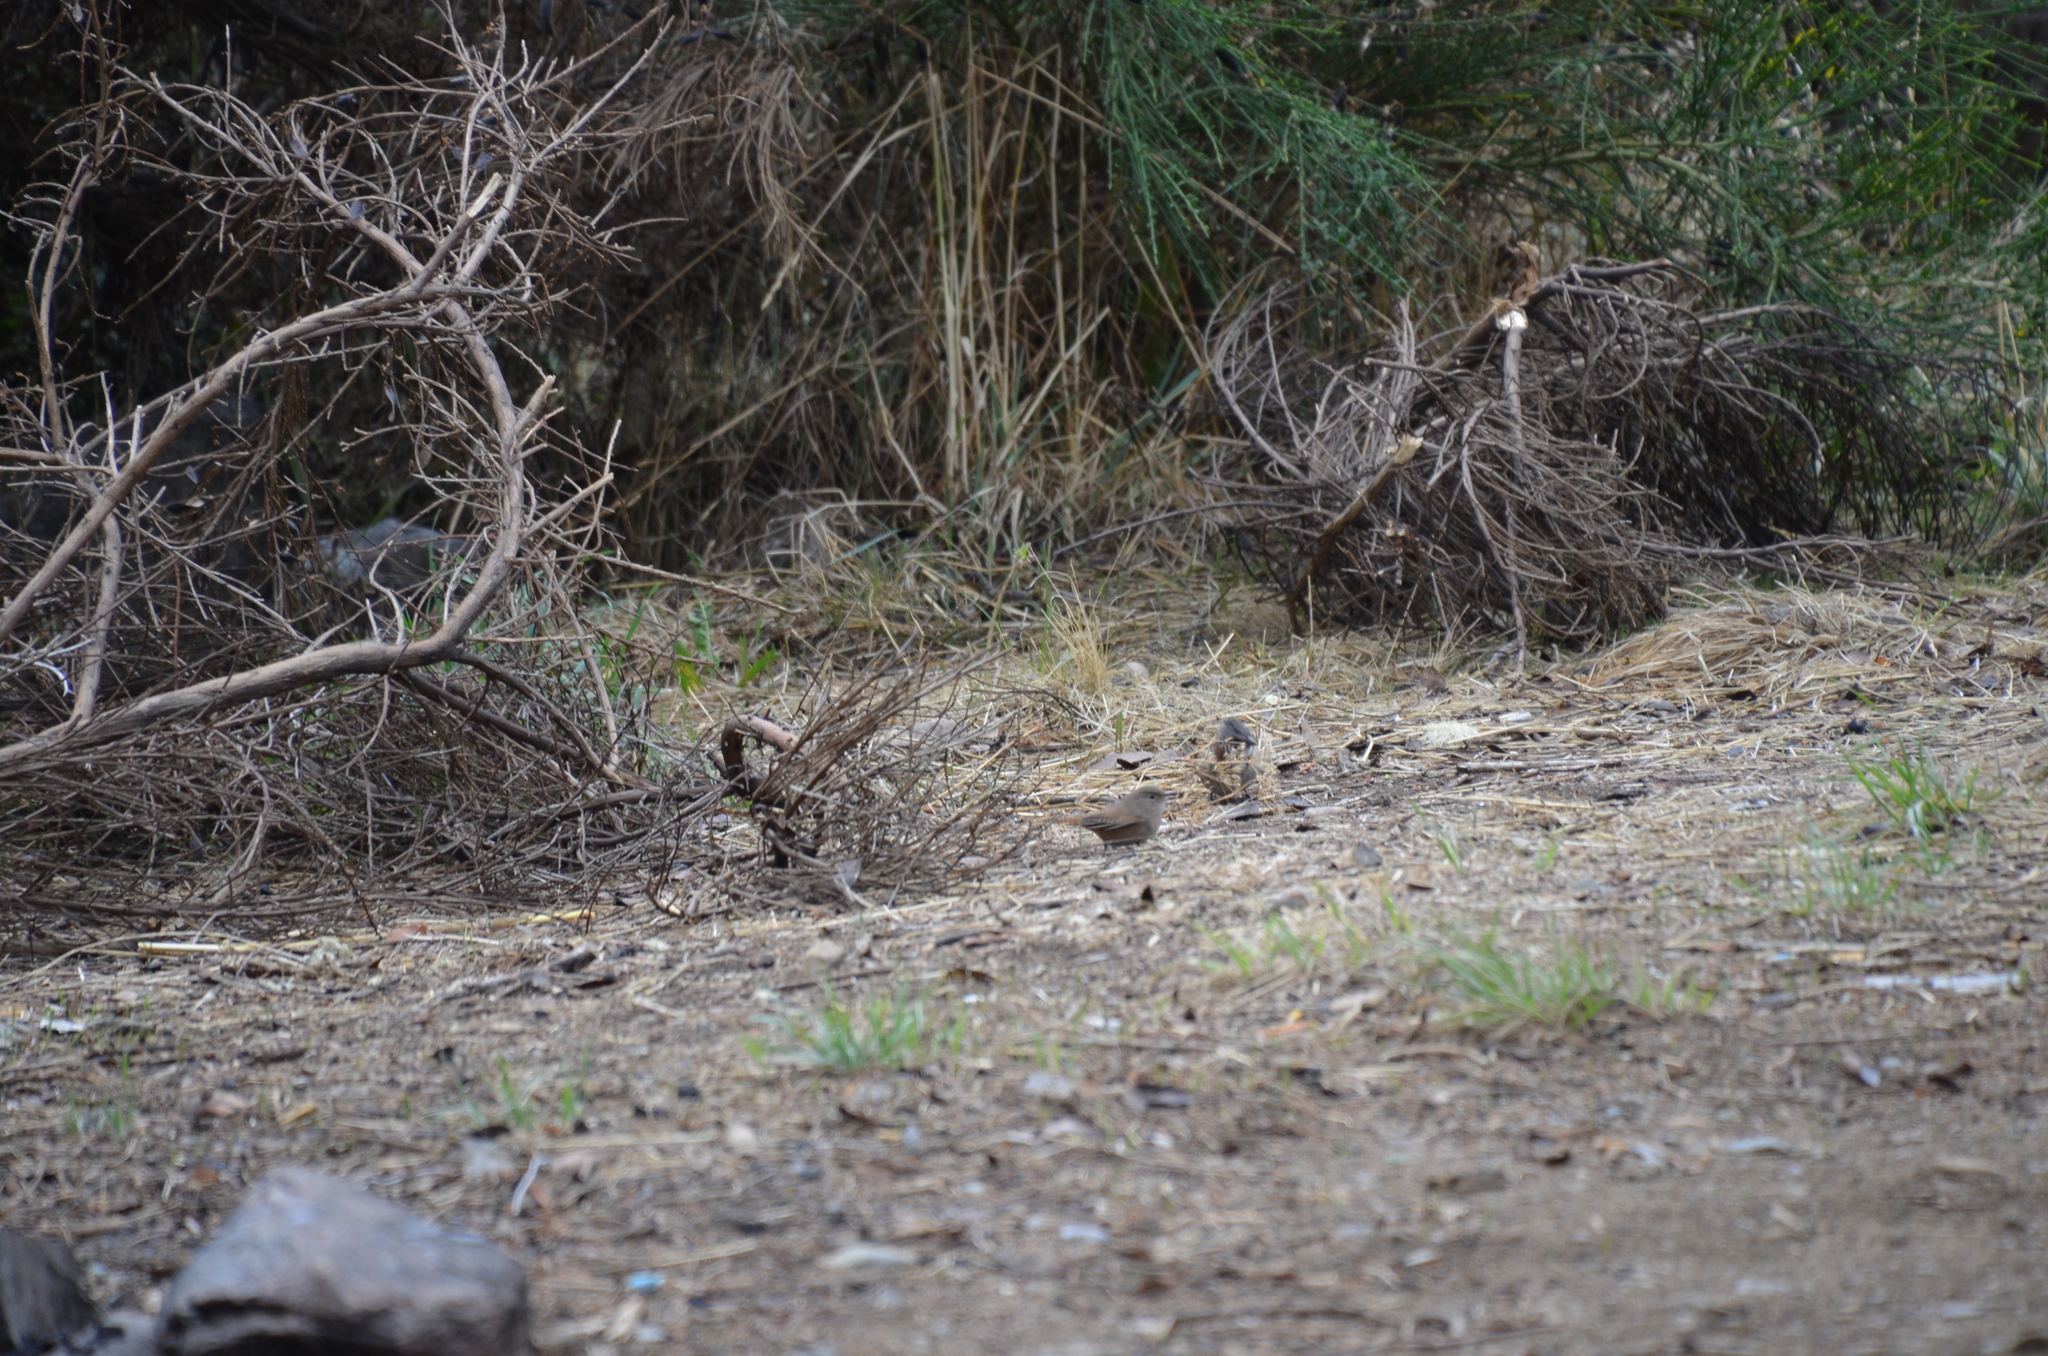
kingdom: Animalia
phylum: Chordata
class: Aves
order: Passeriformes
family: Troglodytidae
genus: Troglodytes
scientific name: Troglodytes aedon
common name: House wren
